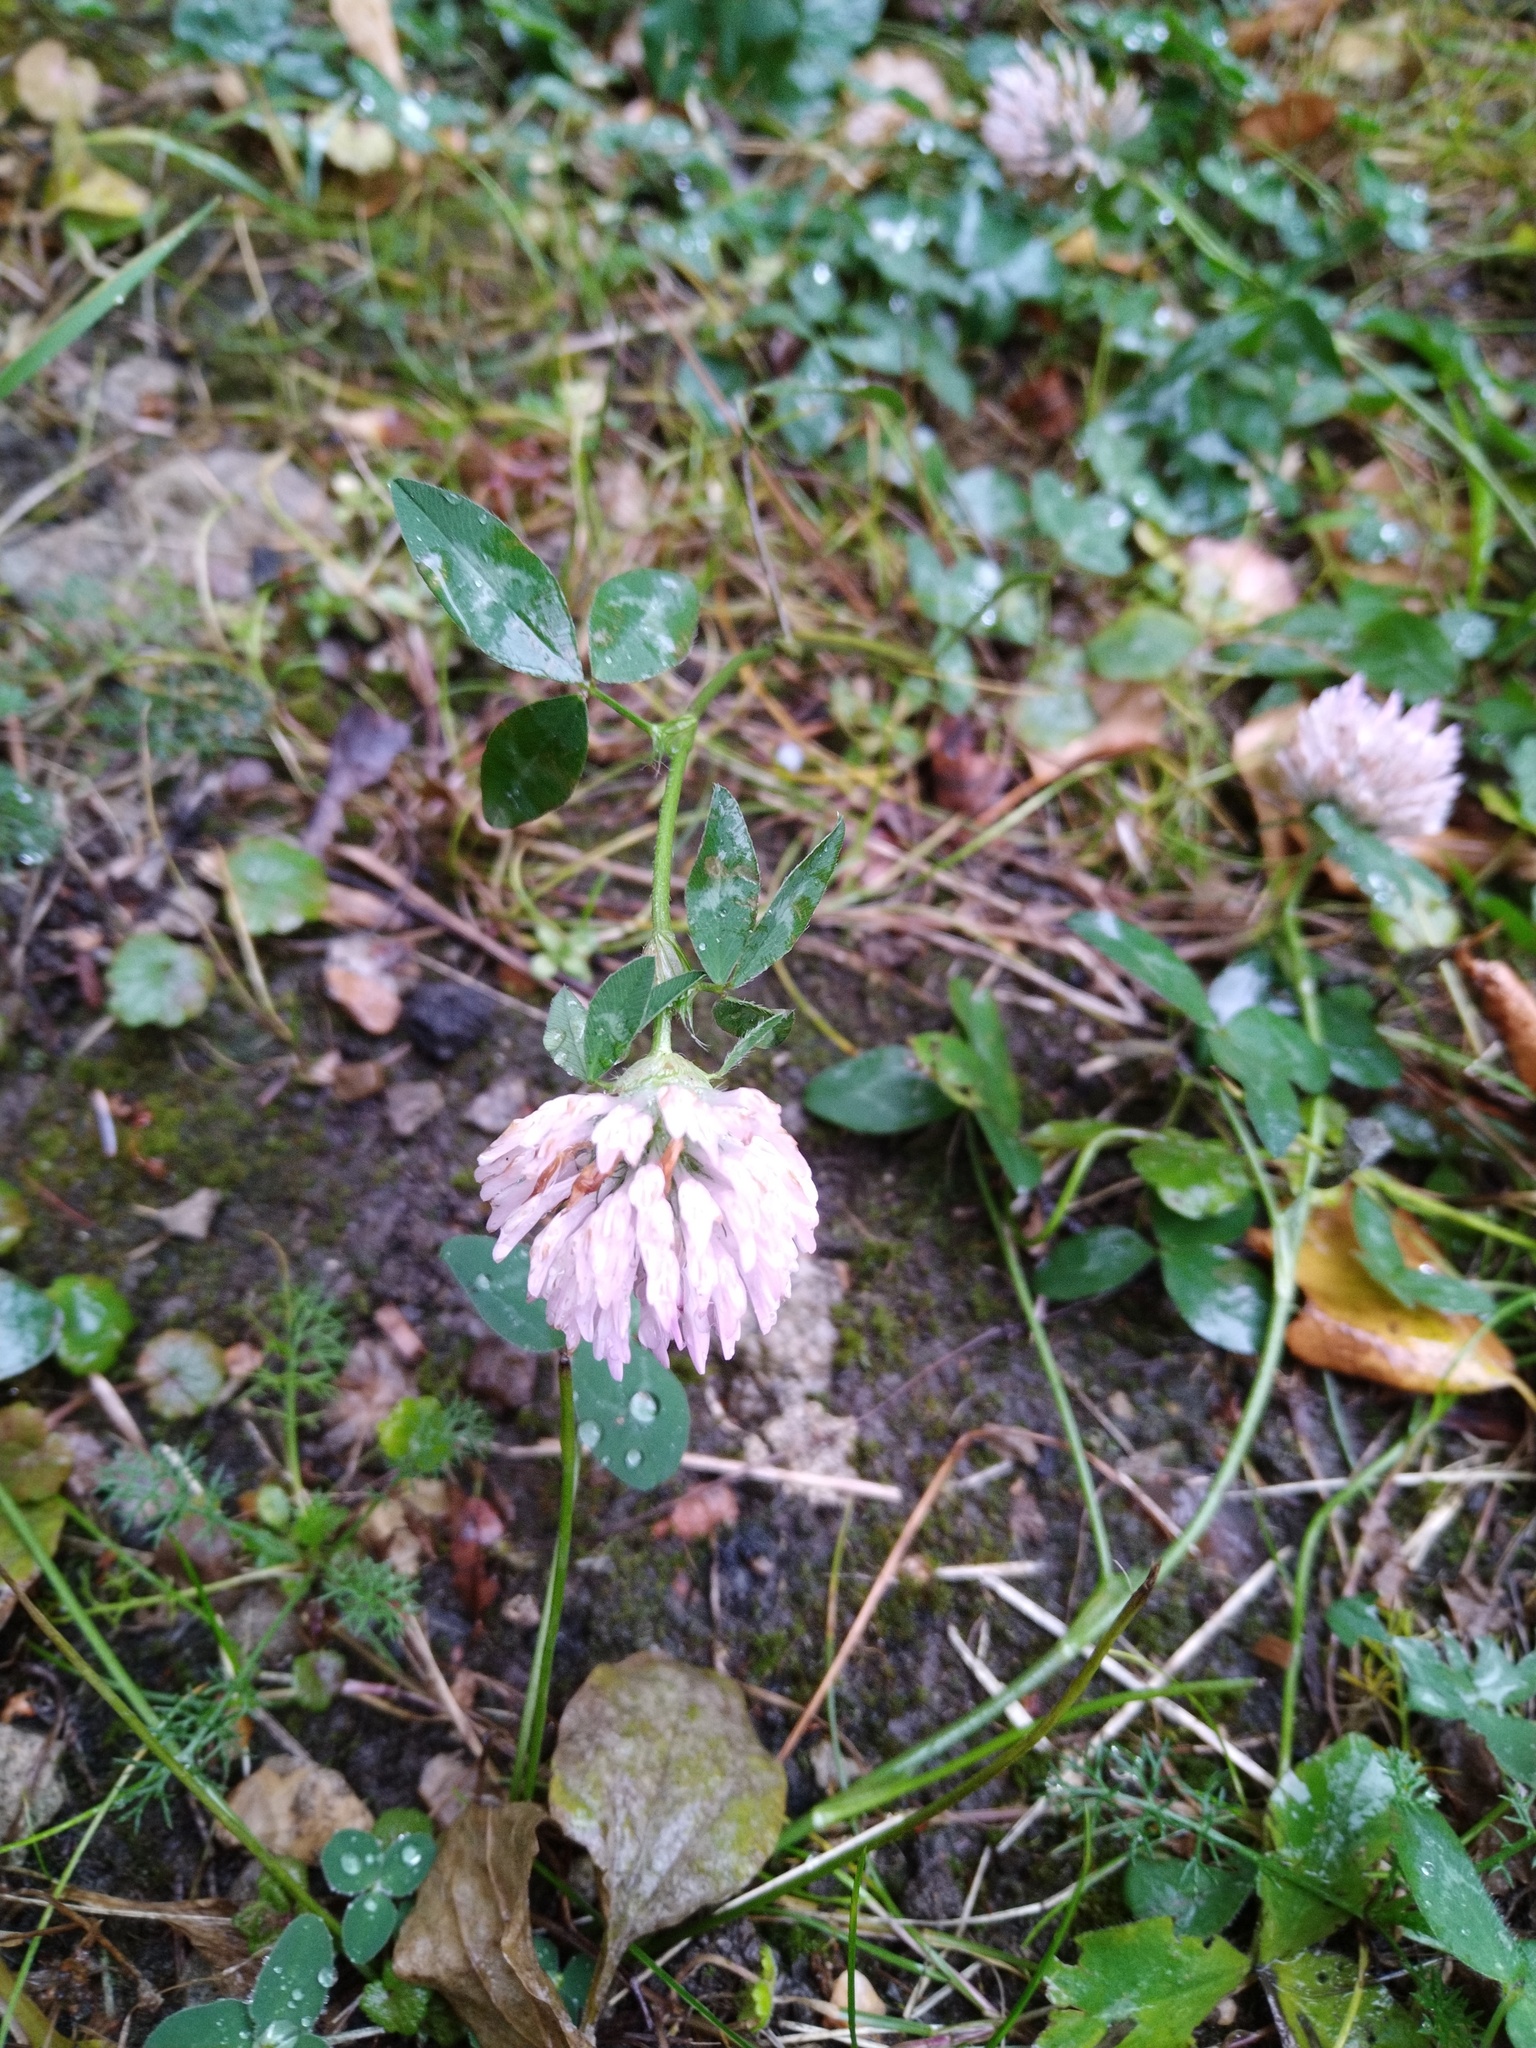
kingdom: Plantae
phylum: Tracheophyta
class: Magnoliopsida
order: Fabales
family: Fabaceae
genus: Trifolium
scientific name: Trifolium pratense
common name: Red clover
